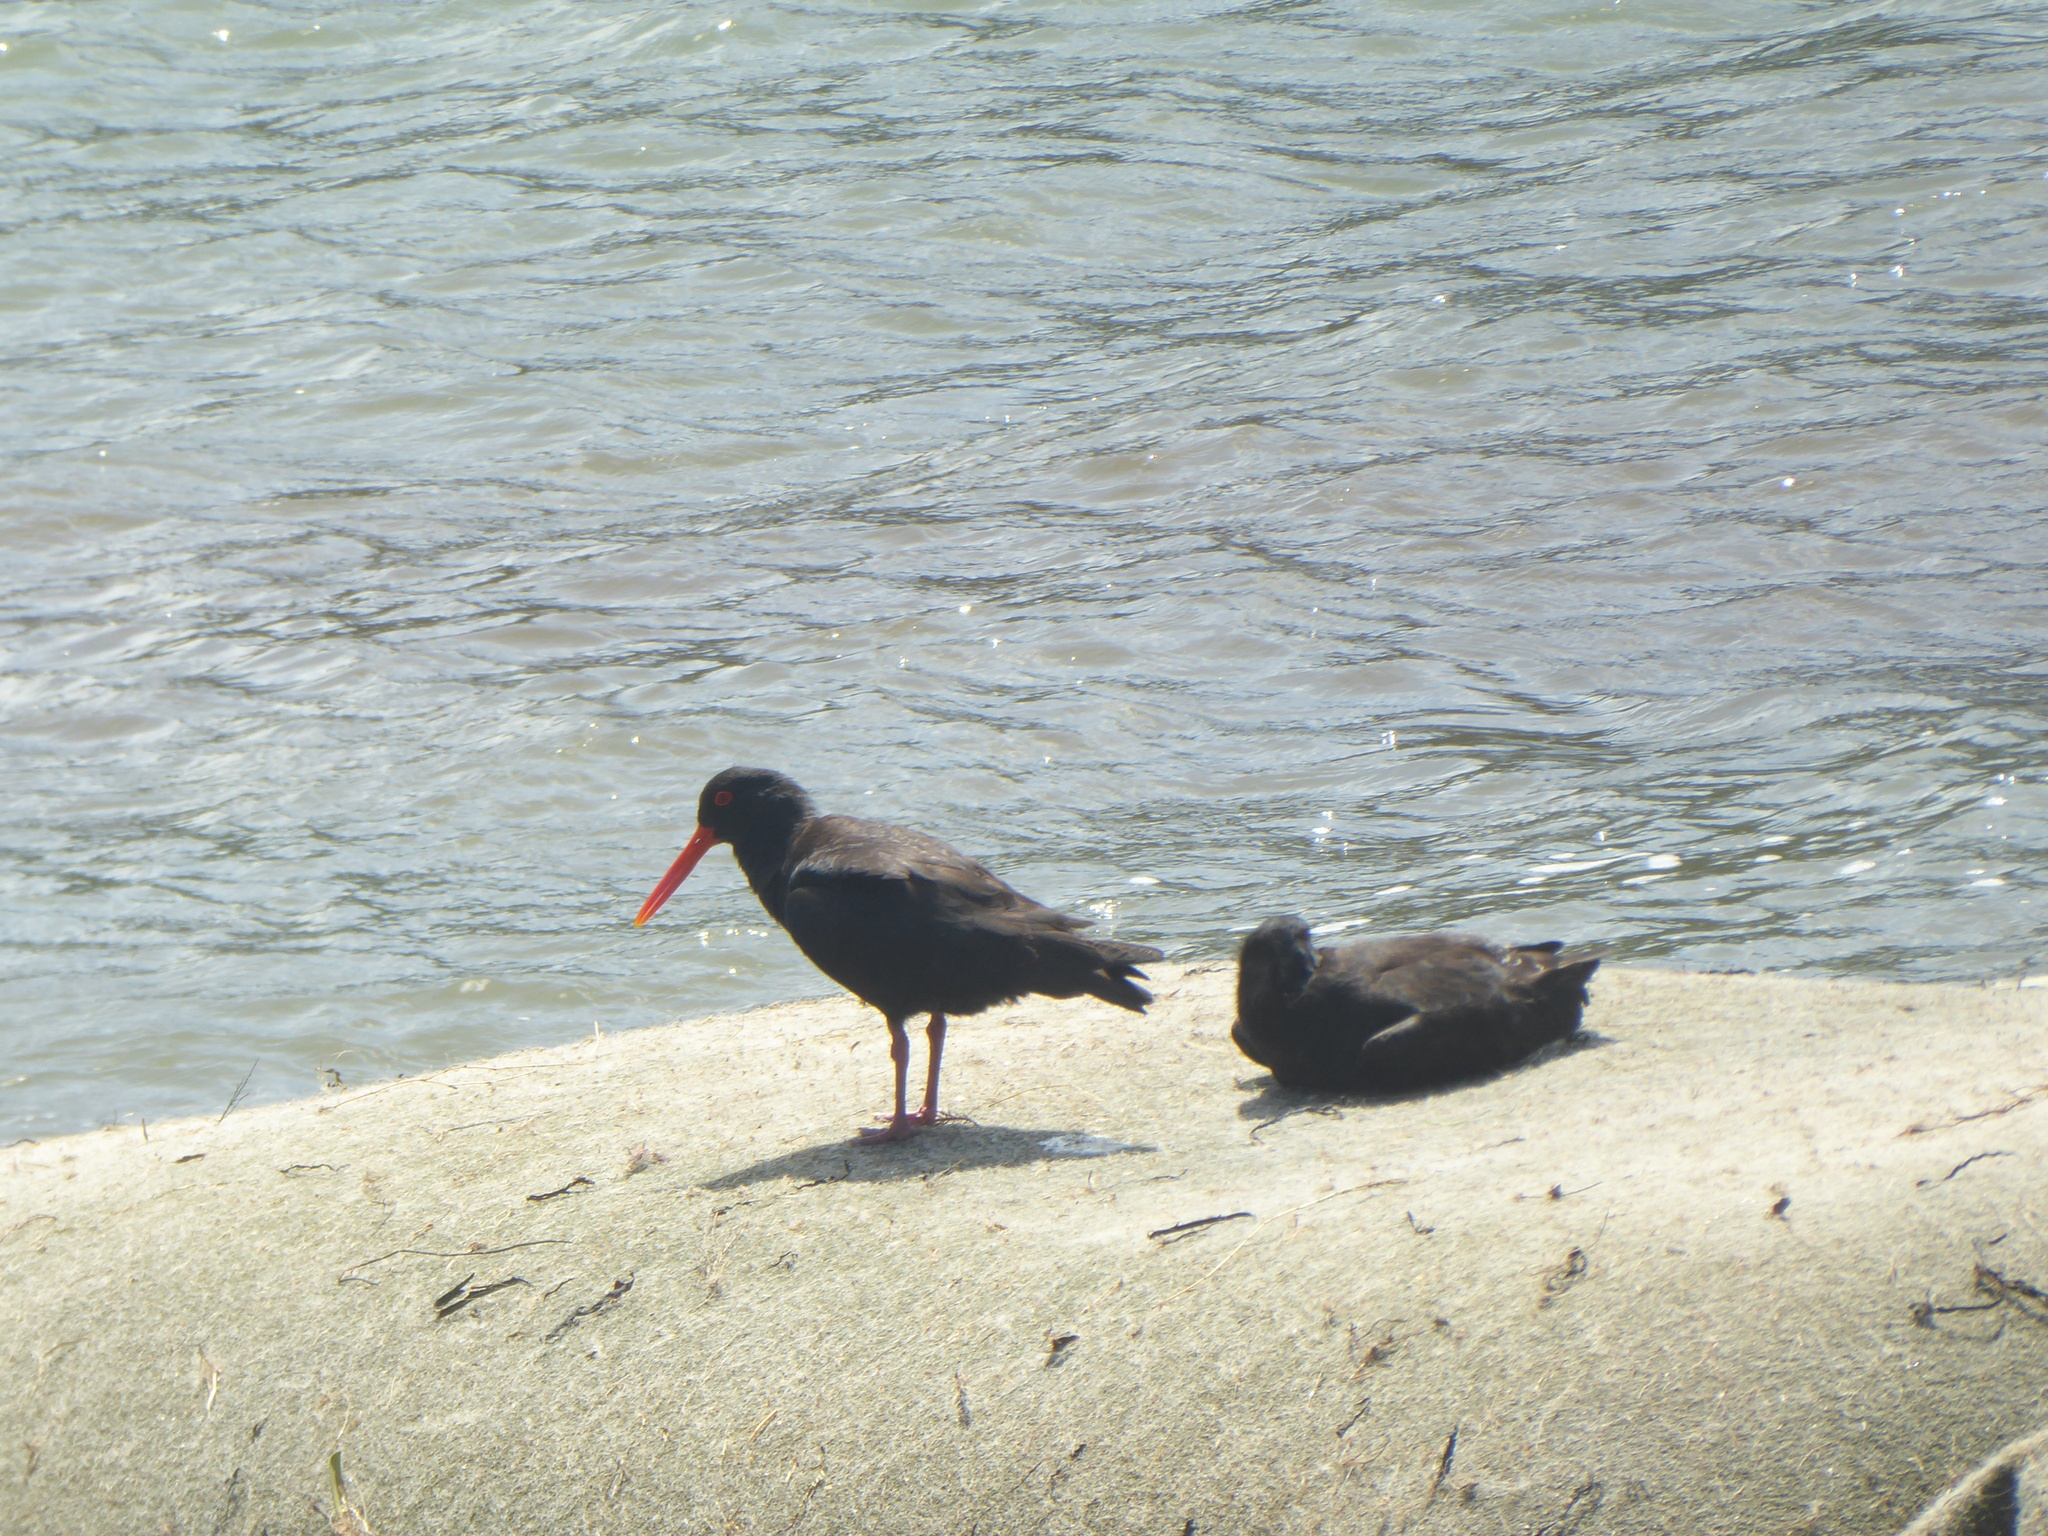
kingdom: Animalia
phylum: Chordata
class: Aves
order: Charadriiformes
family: Haematopodidae
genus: Haematopus
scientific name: Haematopus unicolor
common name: Variable oystercatcher
